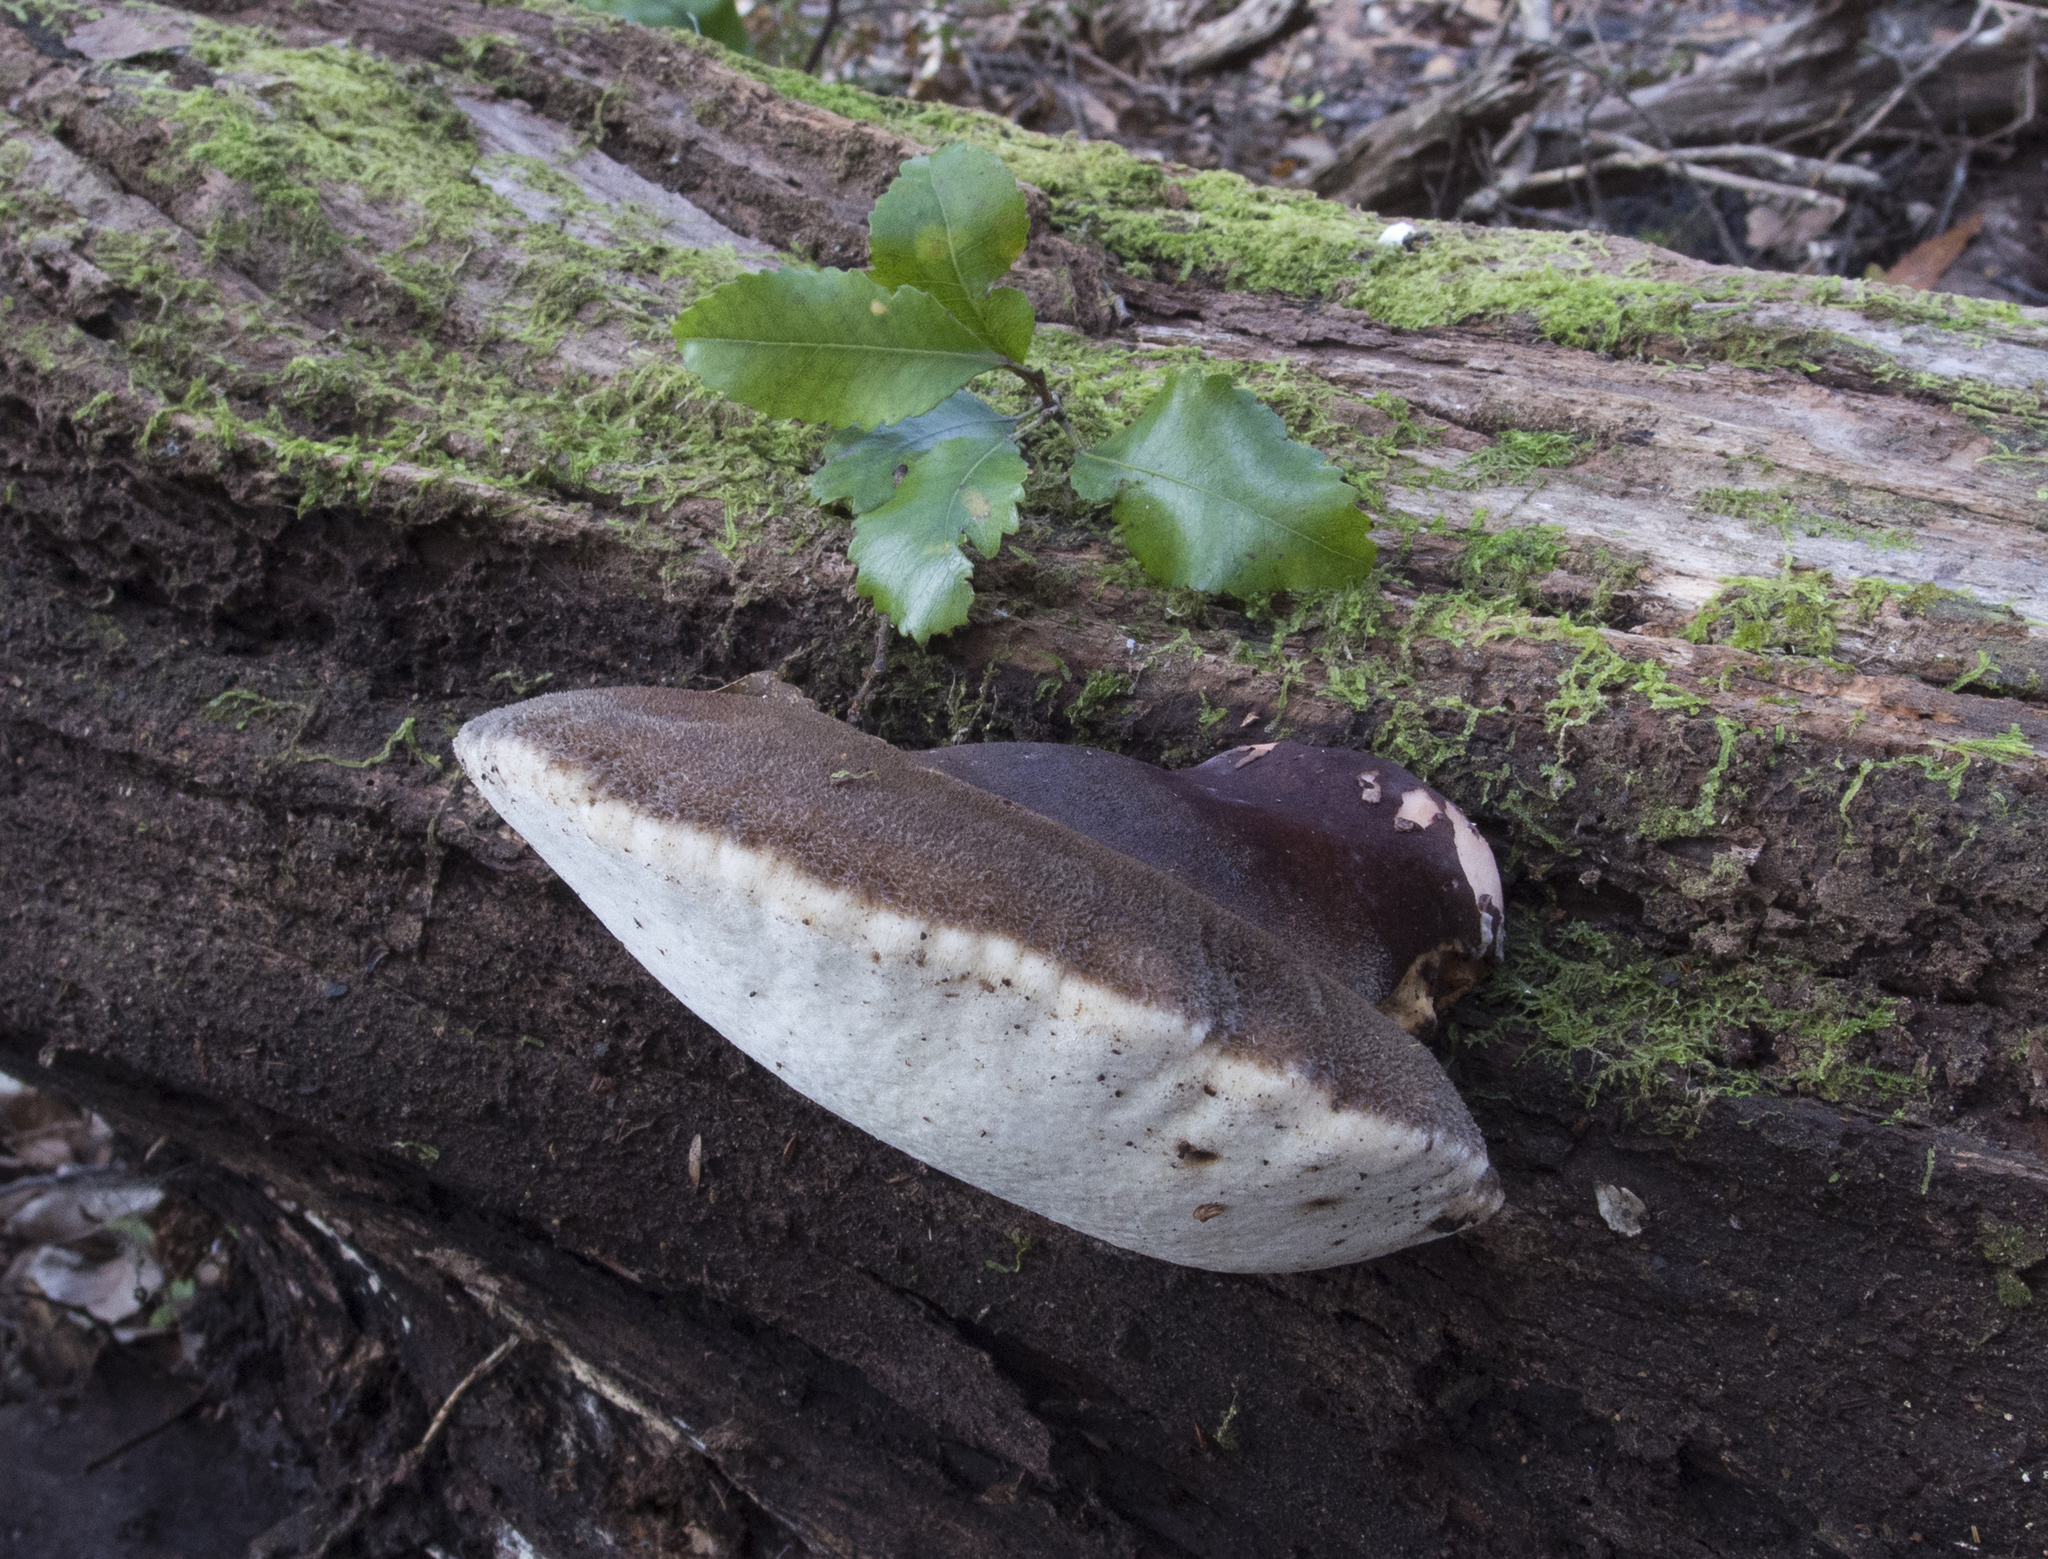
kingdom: Fungi
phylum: Basidiomycota
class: Agaricomycetes
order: Polyporales
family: Dacryobolaceae
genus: Oligoporus
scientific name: Oligoporus pelliculosus
